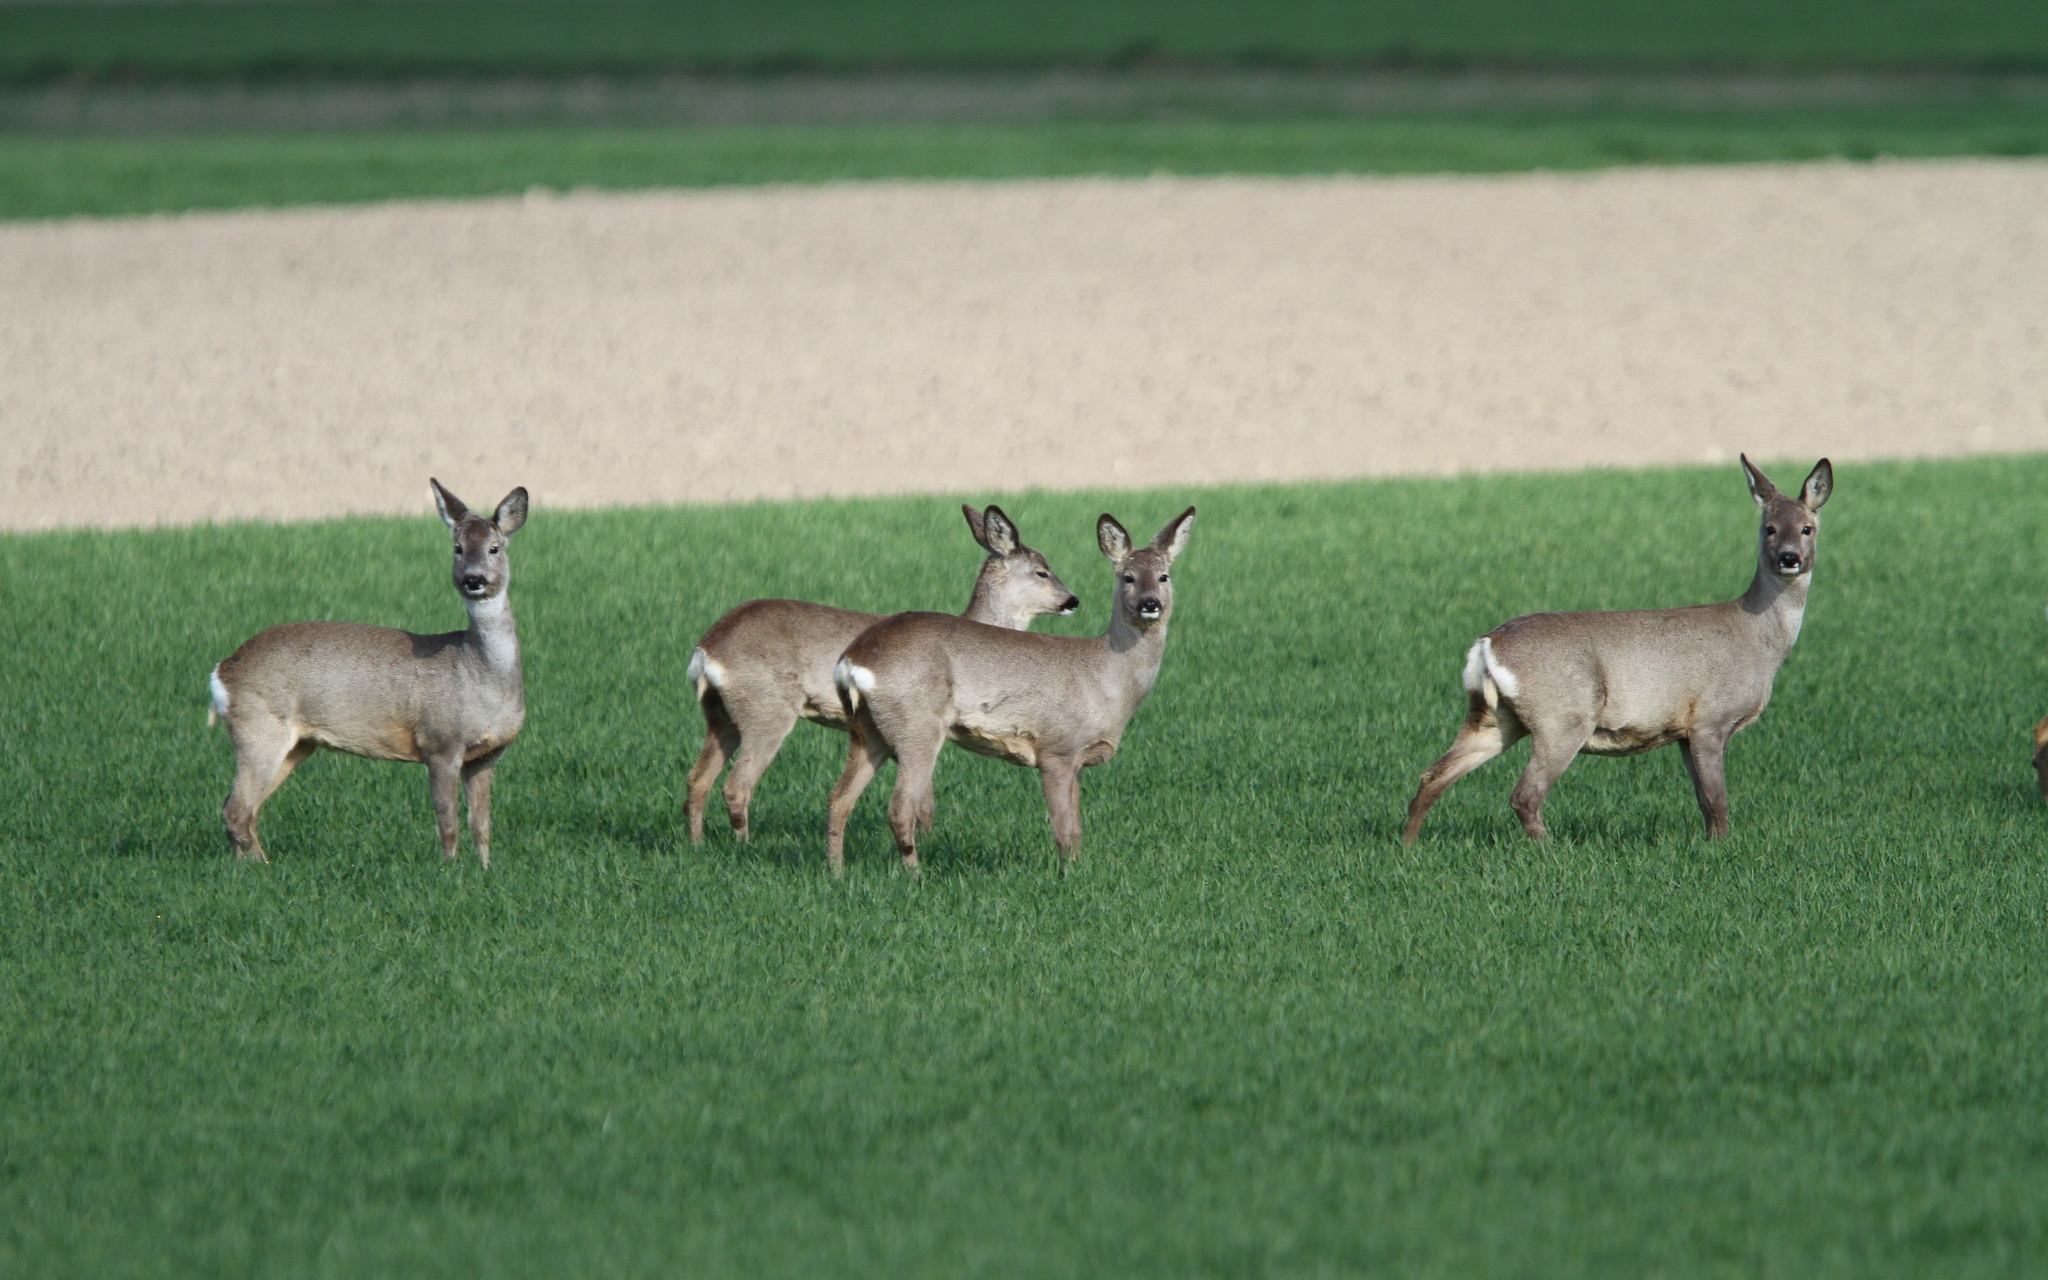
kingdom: Animalia
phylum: Chordata
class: Mammalia
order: Artiodactyla
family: Cervidae
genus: Capreolus
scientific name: Capreolus capreolus
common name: Western roe deer
